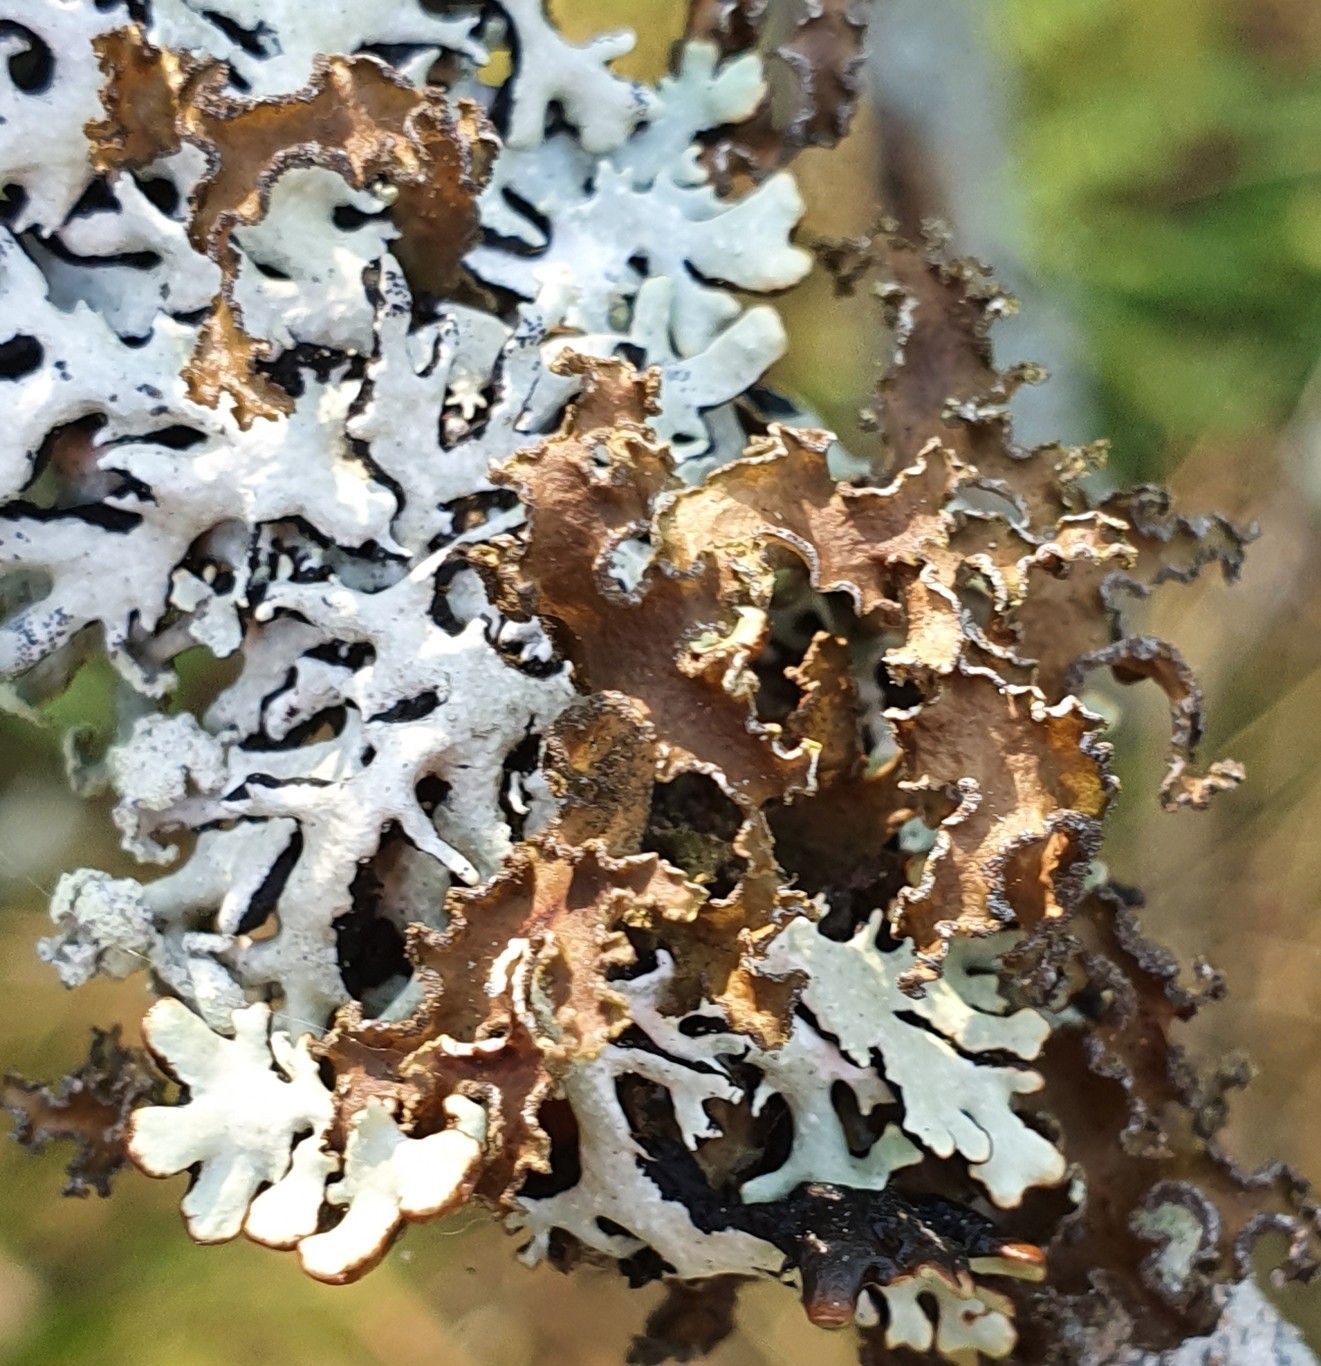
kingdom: Fungi
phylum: Ascomycota
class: Lecanoromycetes
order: Lecanorales
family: Parmeliaceae
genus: Nephromopsis
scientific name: Nephromopsis chlorophylla
